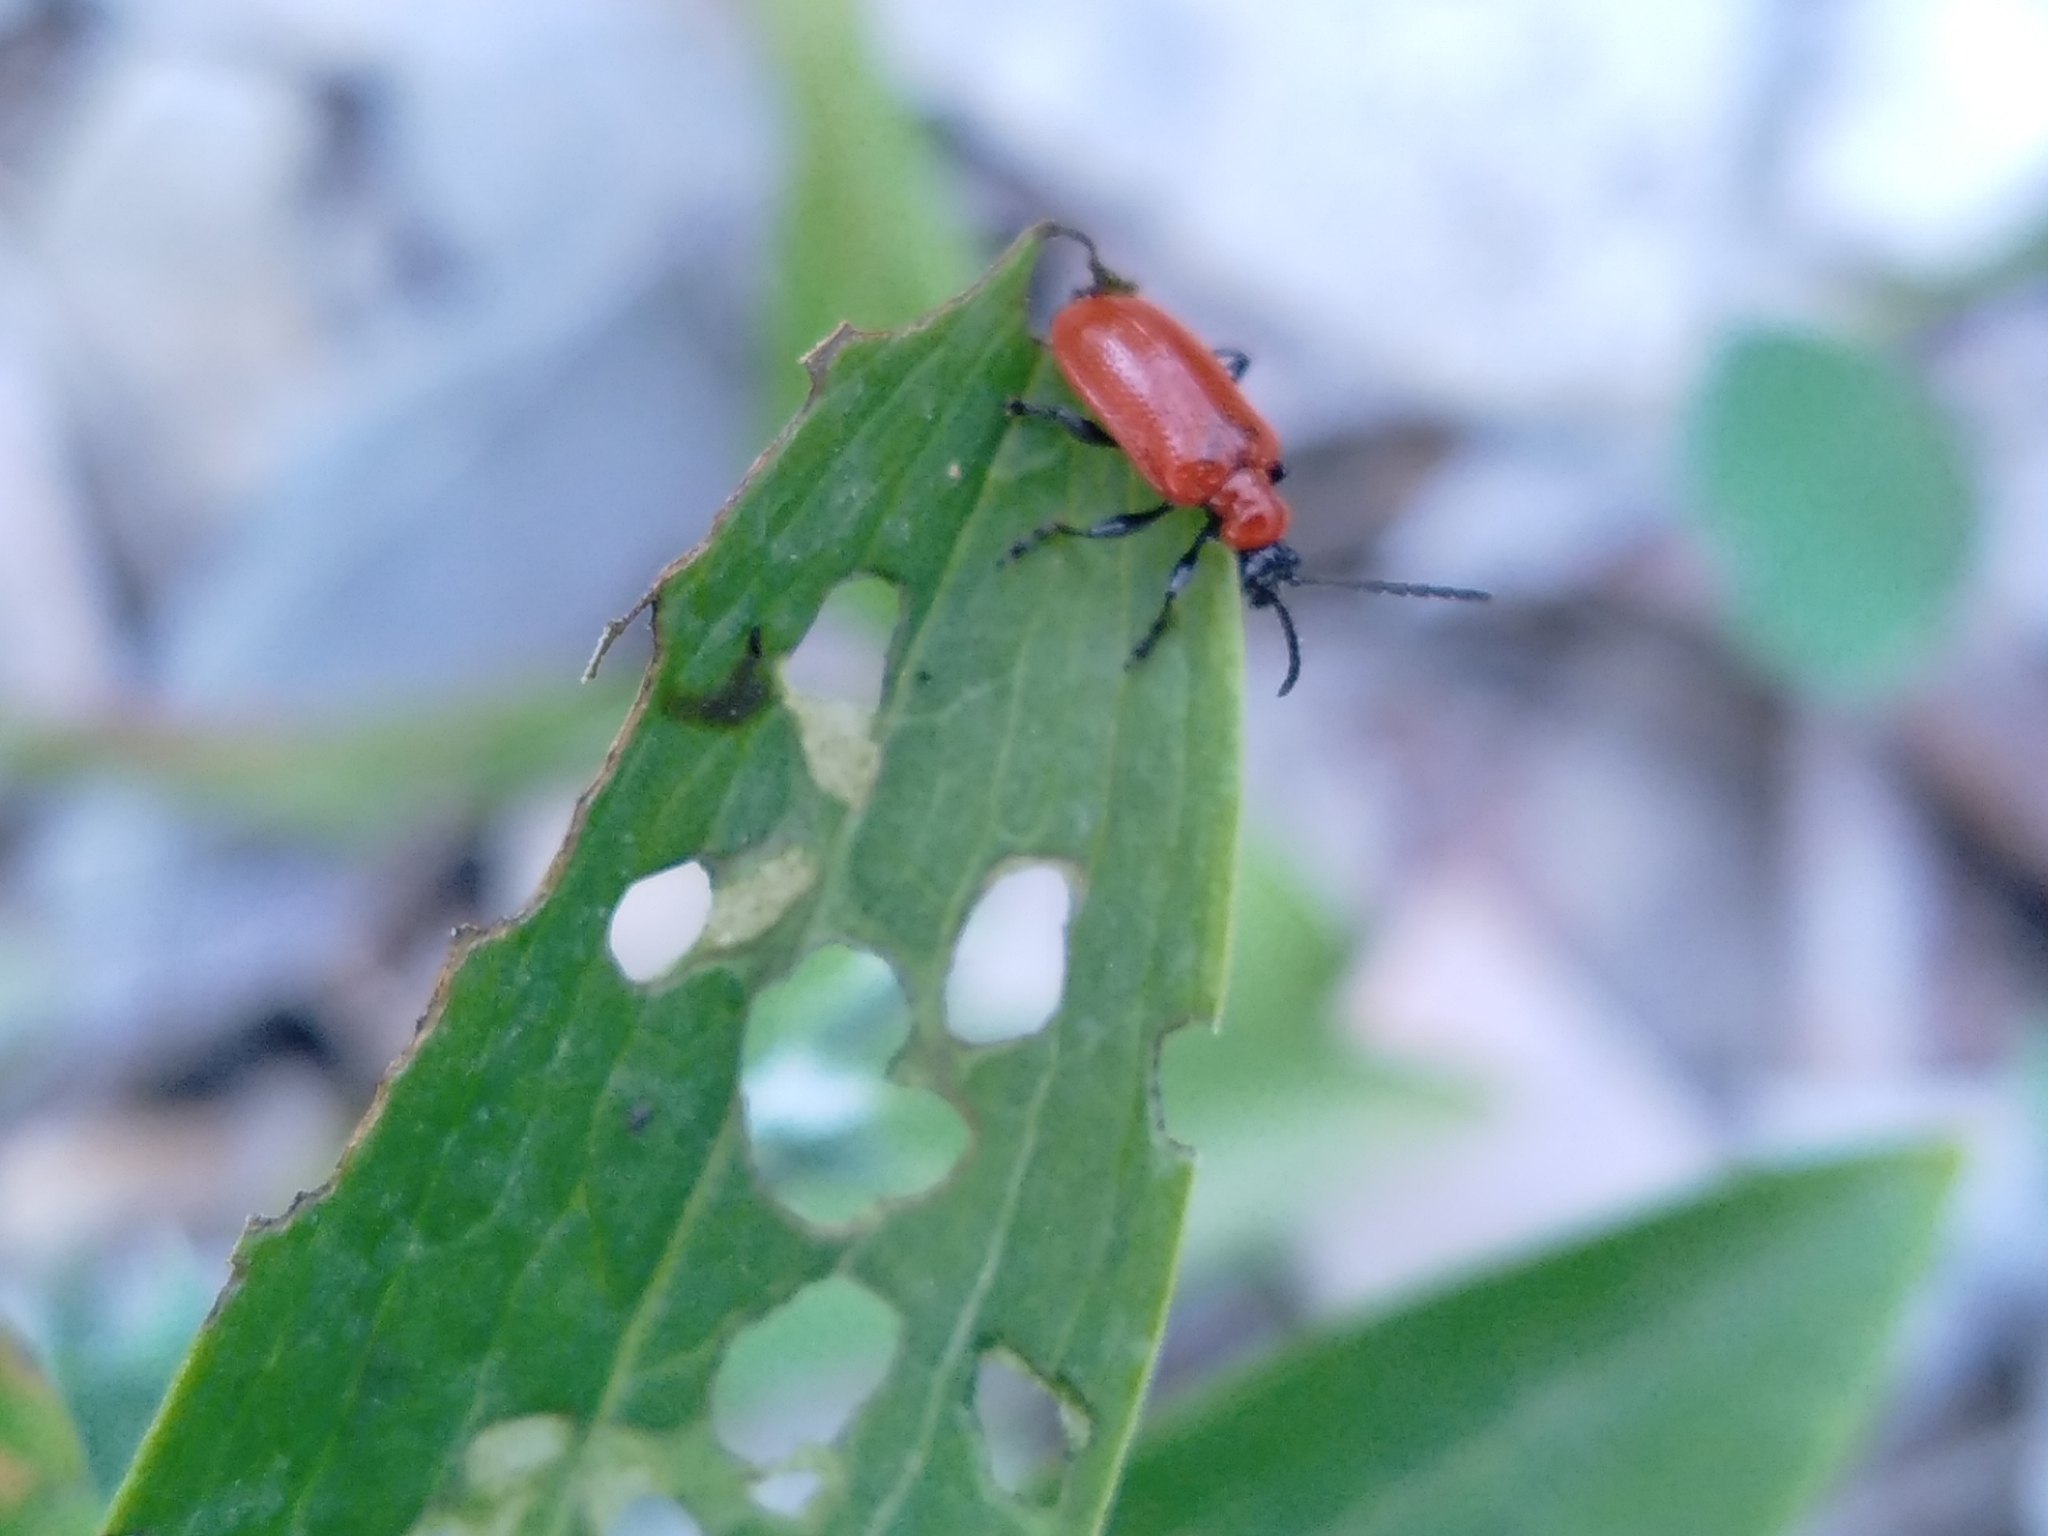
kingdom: Animalia
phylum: Arthropoda
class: Insecta
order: Coleoptera
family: Chrysomelidae
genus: Lilioceris
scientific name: Lilioceris lilii
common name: Lily beetle
